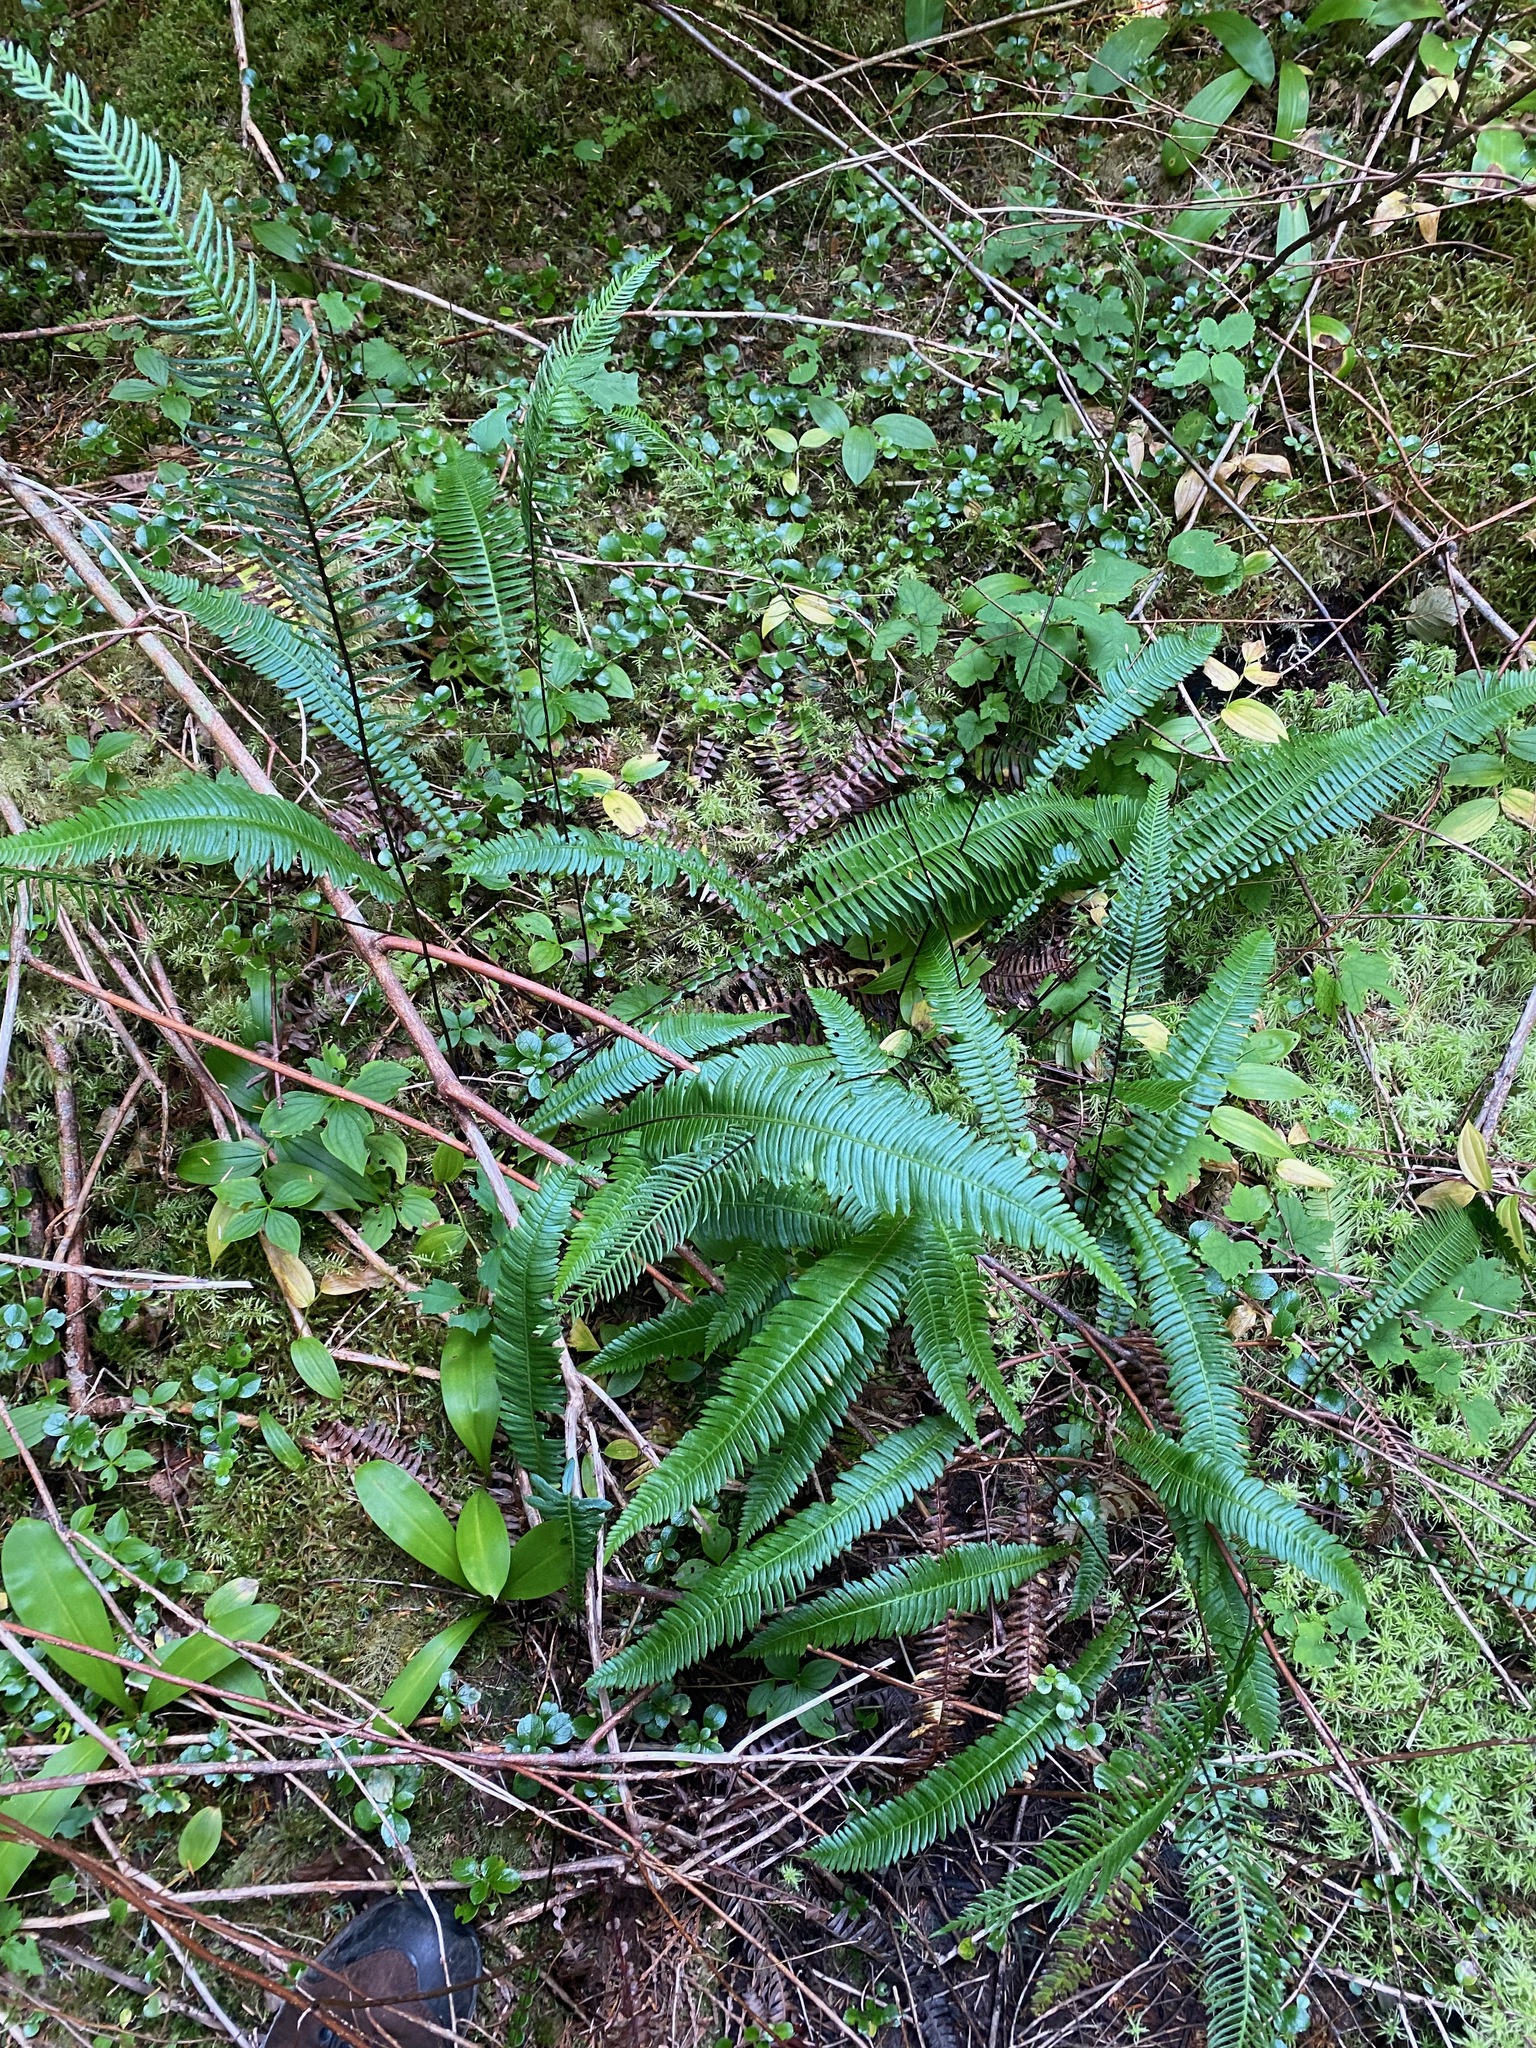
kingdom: Plantae
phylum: Tracheophyta
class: Polypodiopsida
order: Polypodiales
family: Blechnaceae
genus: Struthiopteris
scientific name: Struthiopteris spicant
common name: Deer fern
